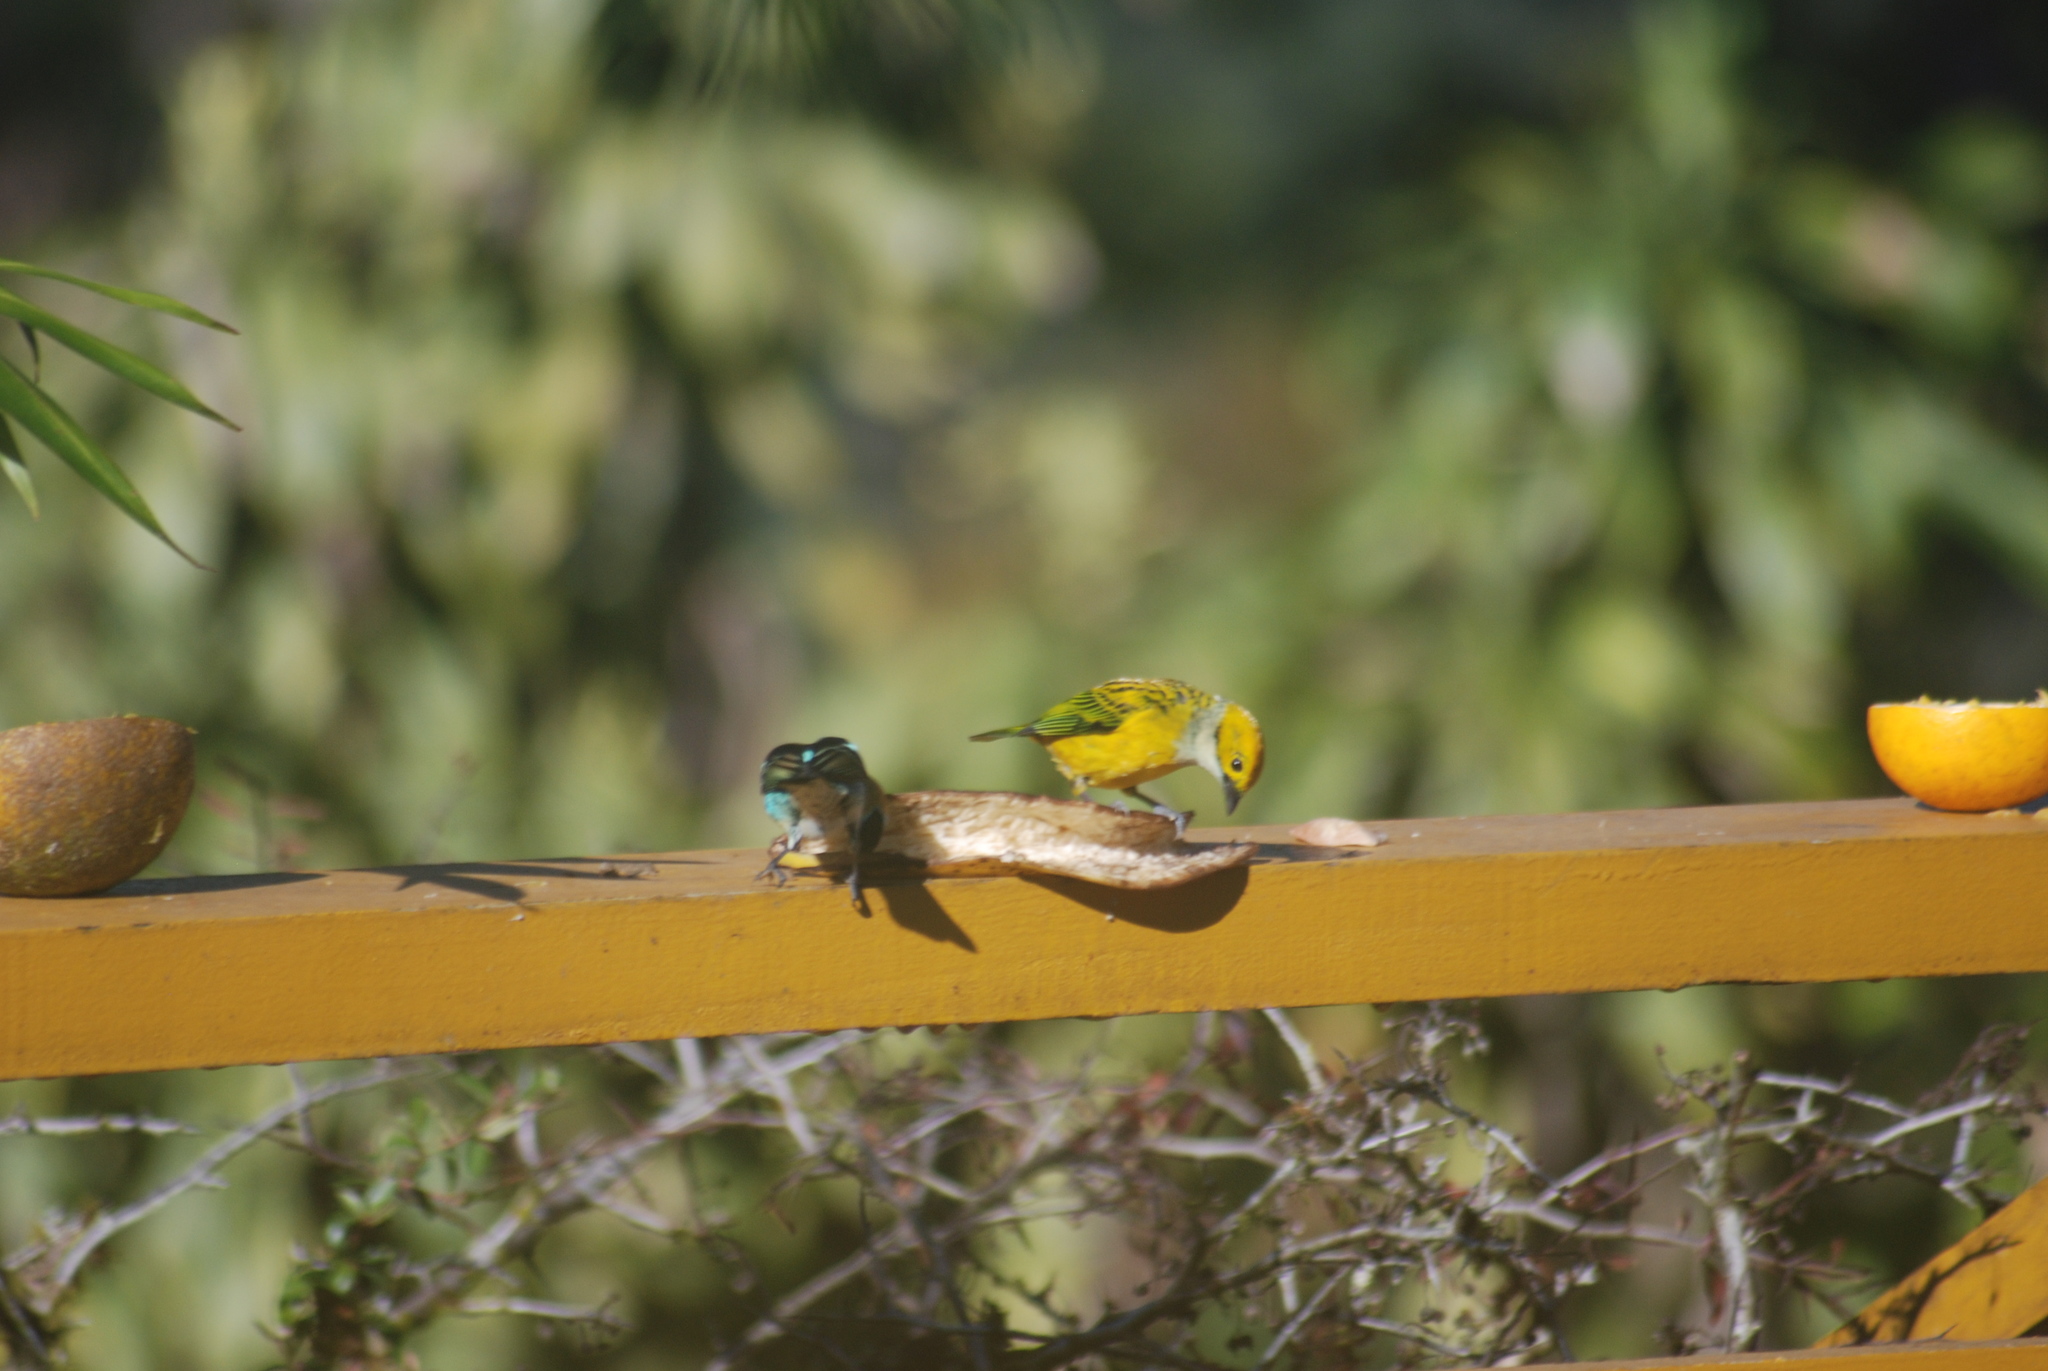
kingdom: Animalia
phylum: Chordata
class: Aves
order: Passeriformes
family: Thraupidae
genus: Tangara
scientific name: Tangara icterocephala
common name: Silver-throated tanager
